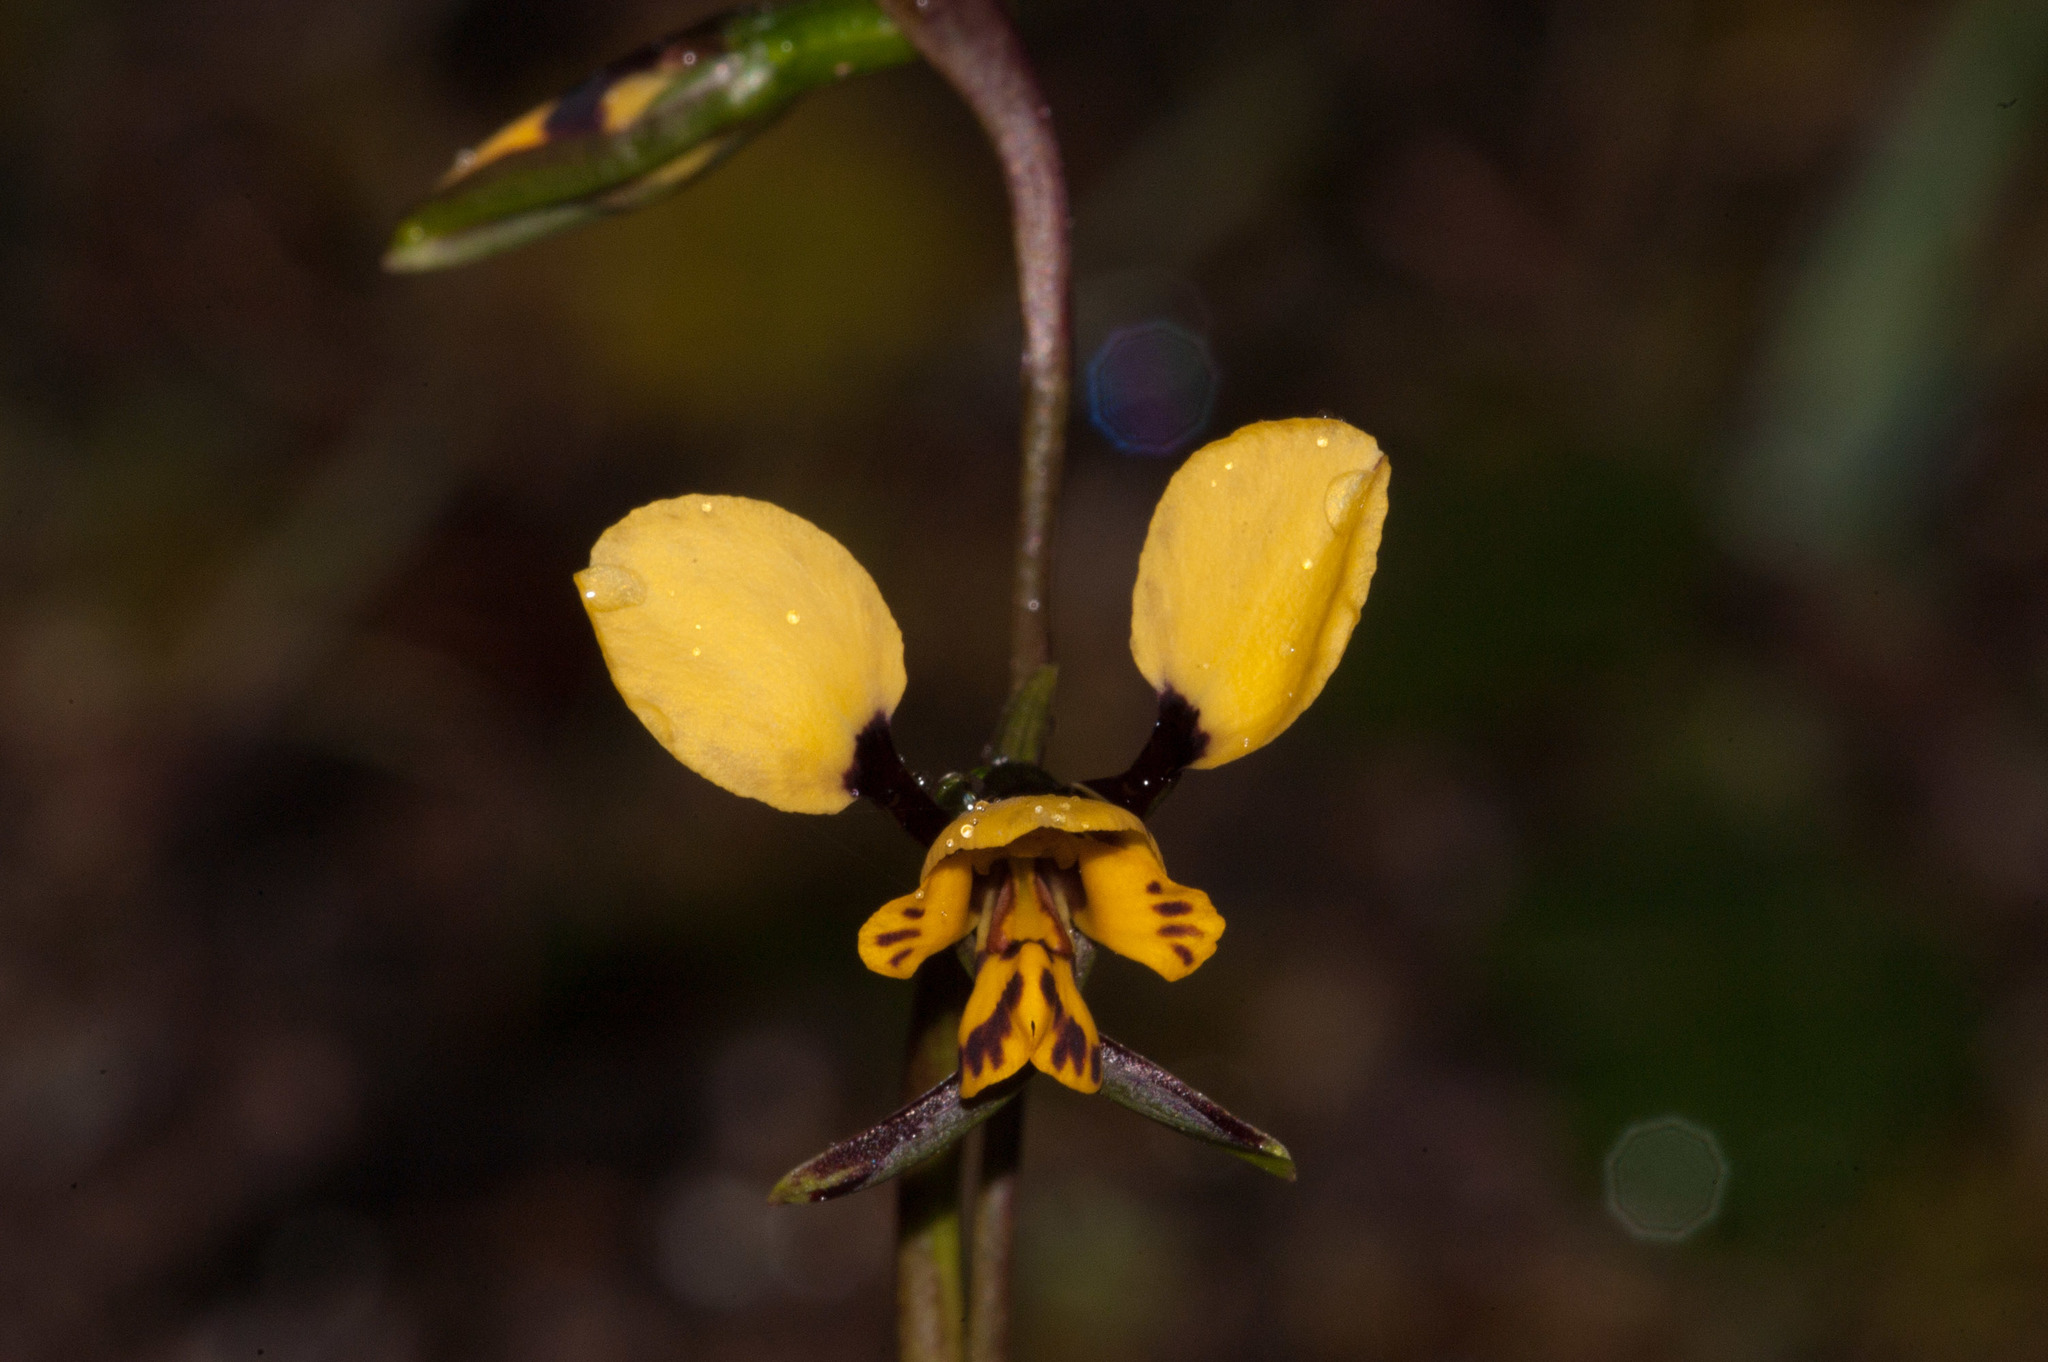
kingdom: Plantae
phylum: Tracheophyta
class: Liliopsida
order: Asparagales
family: Orchidaceae
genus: Diuris
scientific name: Diuris pardina
